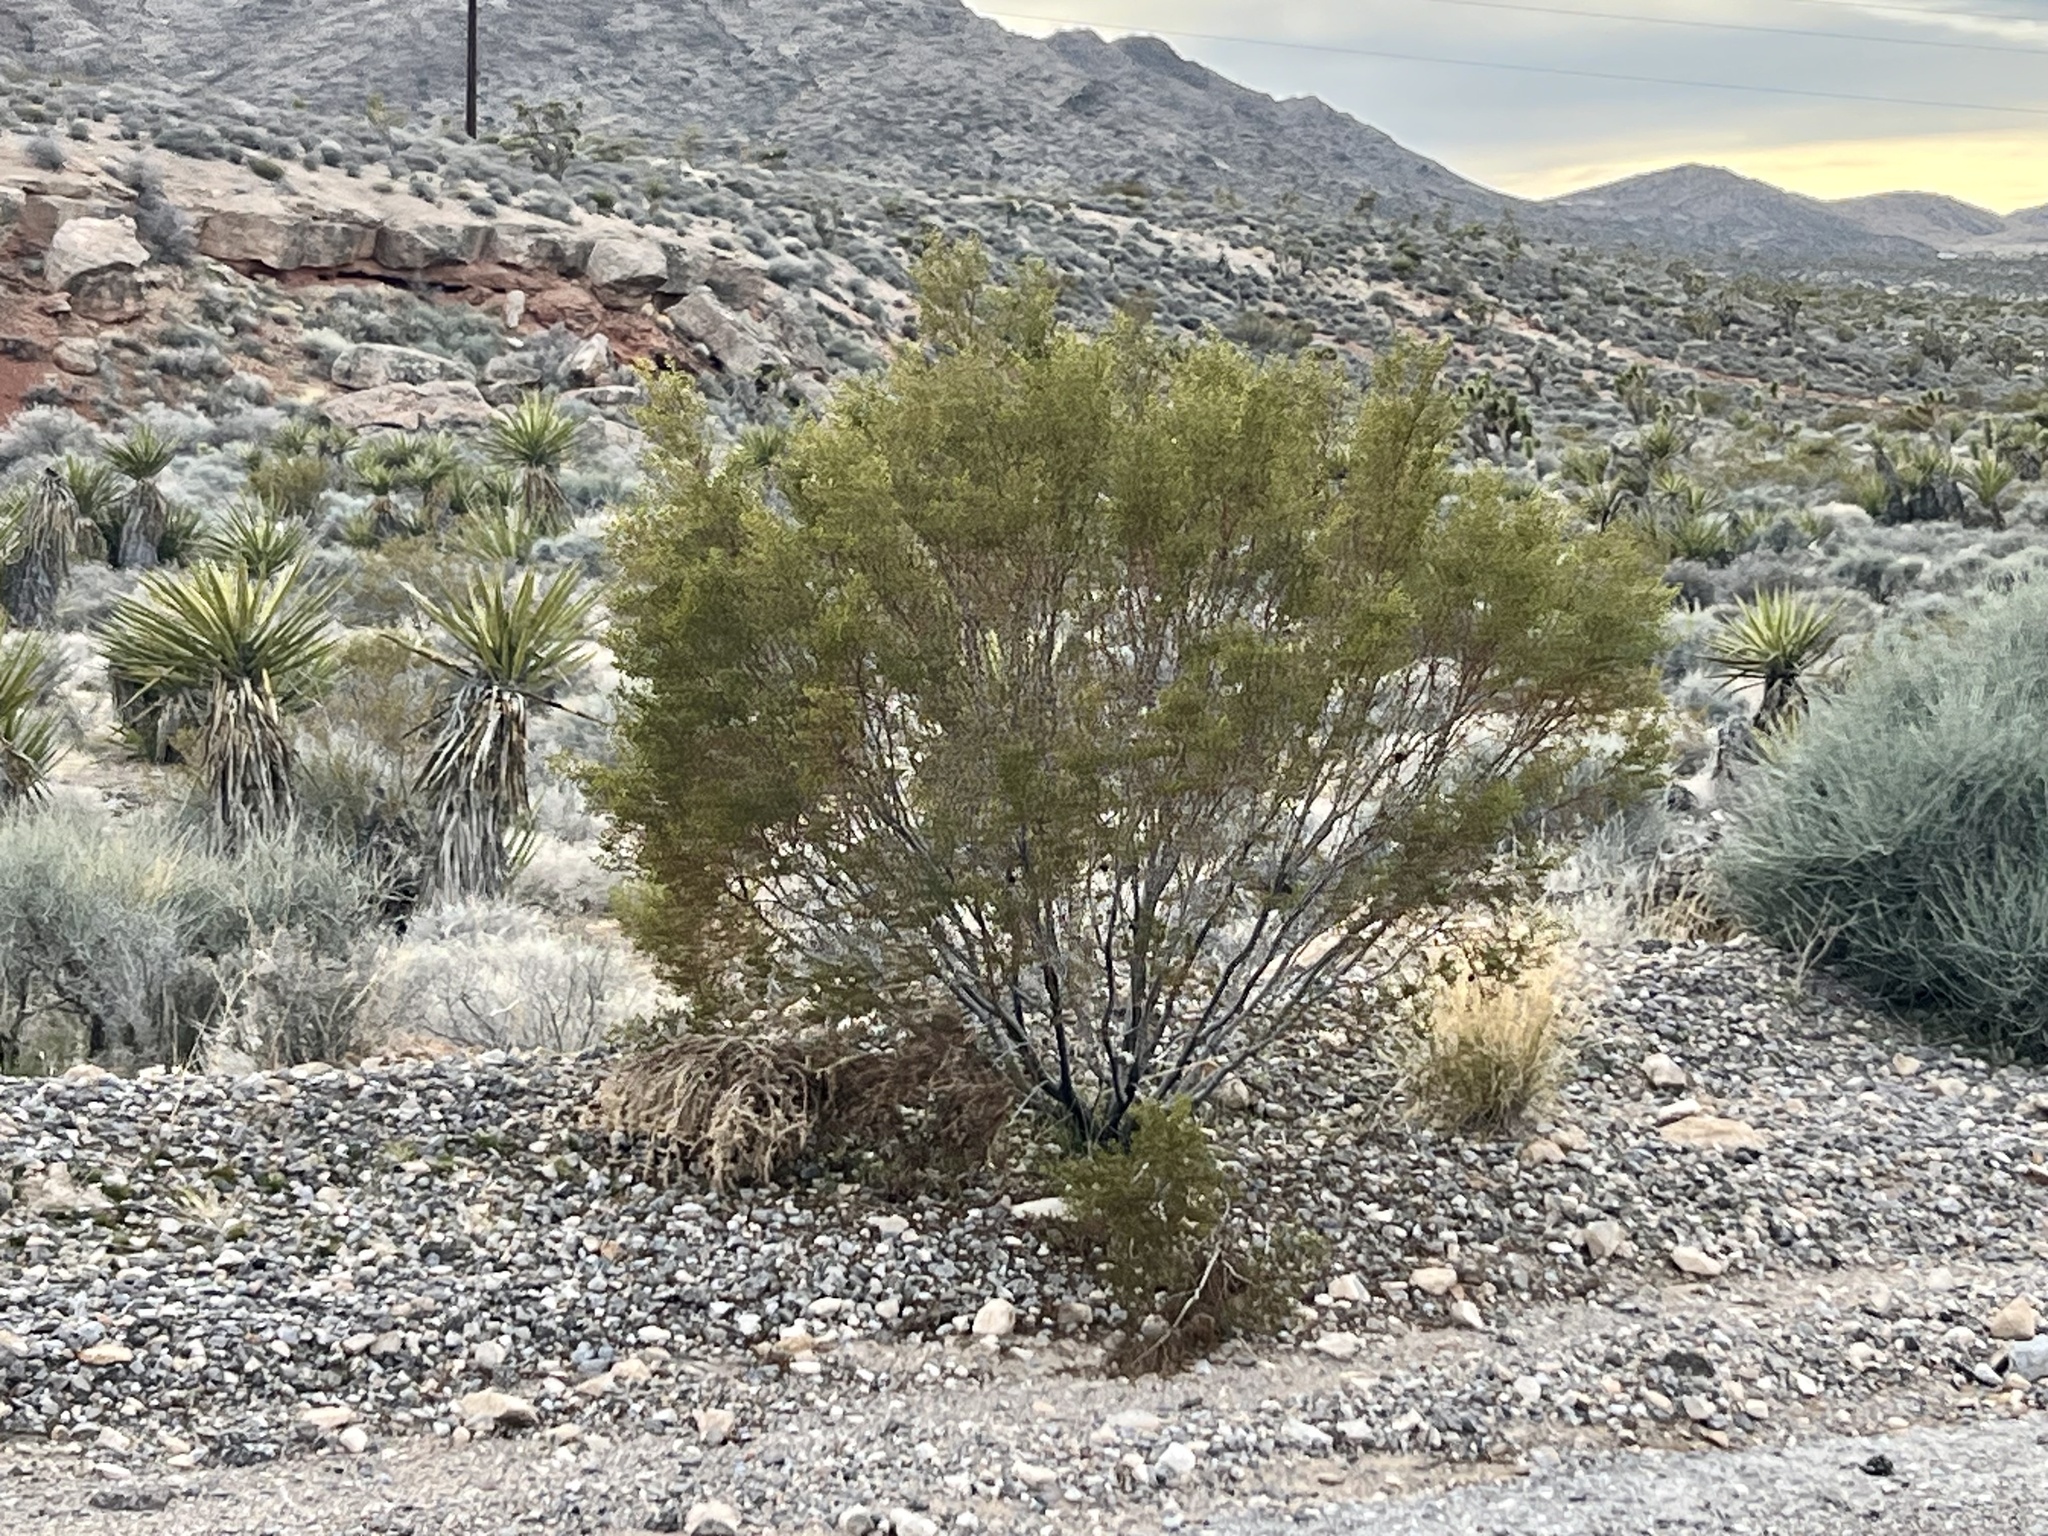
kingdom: Plantae
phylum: Tracheophyta
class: Magnoliopsida
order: Zygophyllales
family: Zygophyllaceae
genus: Larrea
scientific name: Larrea tridentata
